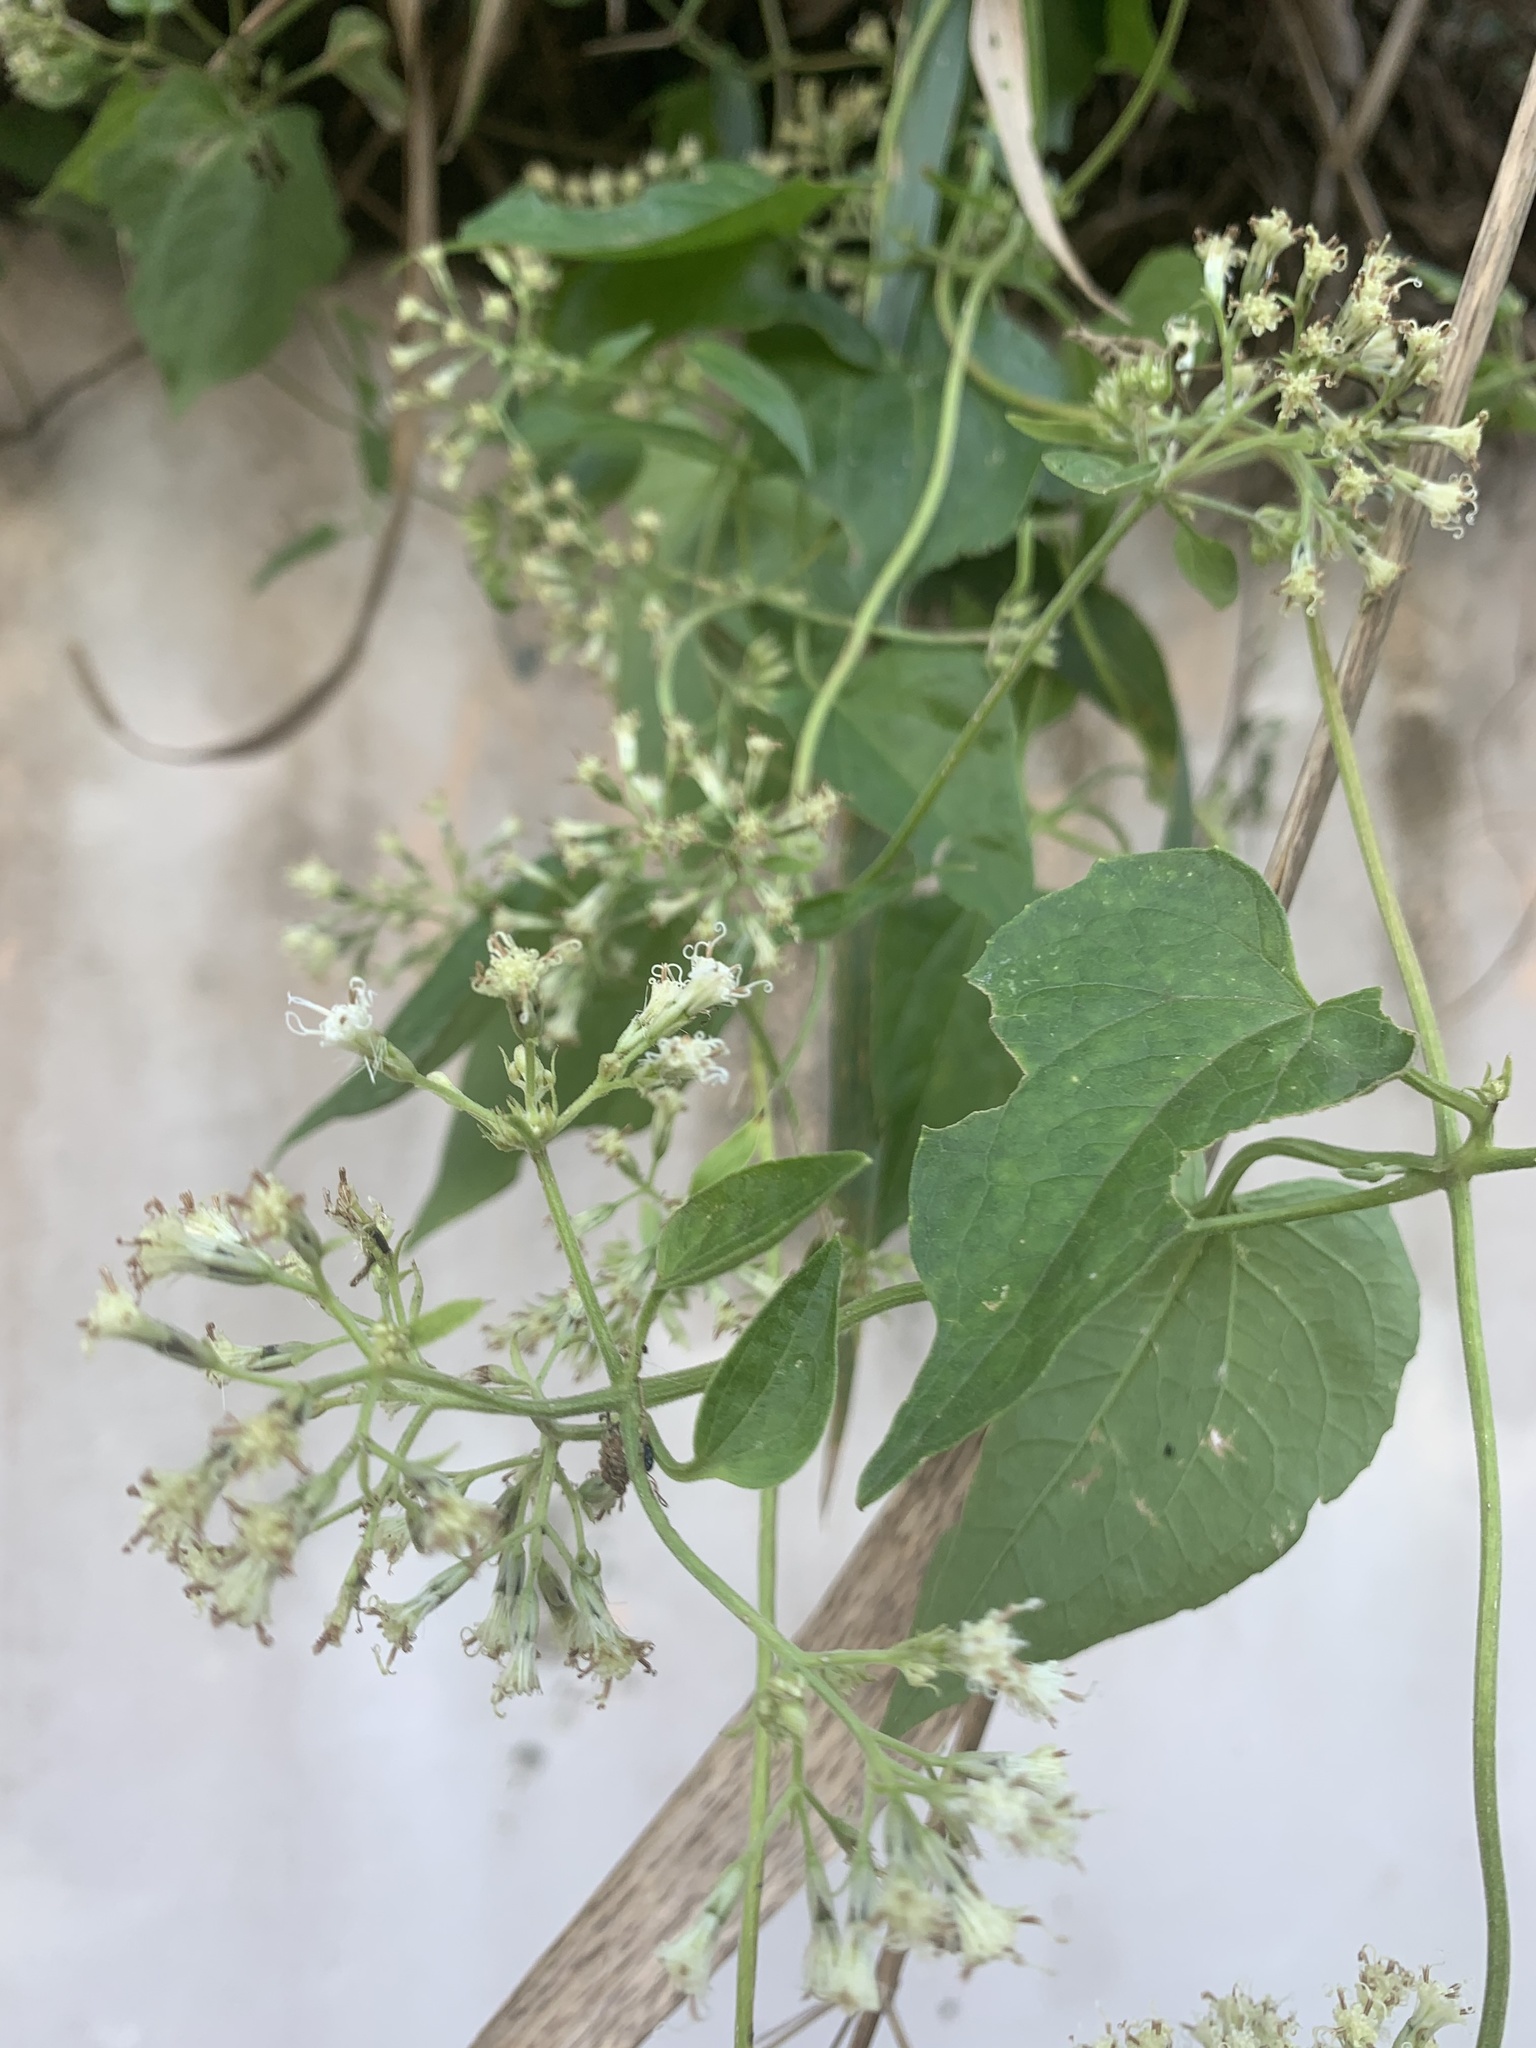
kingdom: Plantae
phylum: Tracheophyta
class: Magnoliopsida
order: Asterales
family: Asteraceae
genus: Mikania
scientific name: Mikania micrantha
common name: Mile-a-minute
